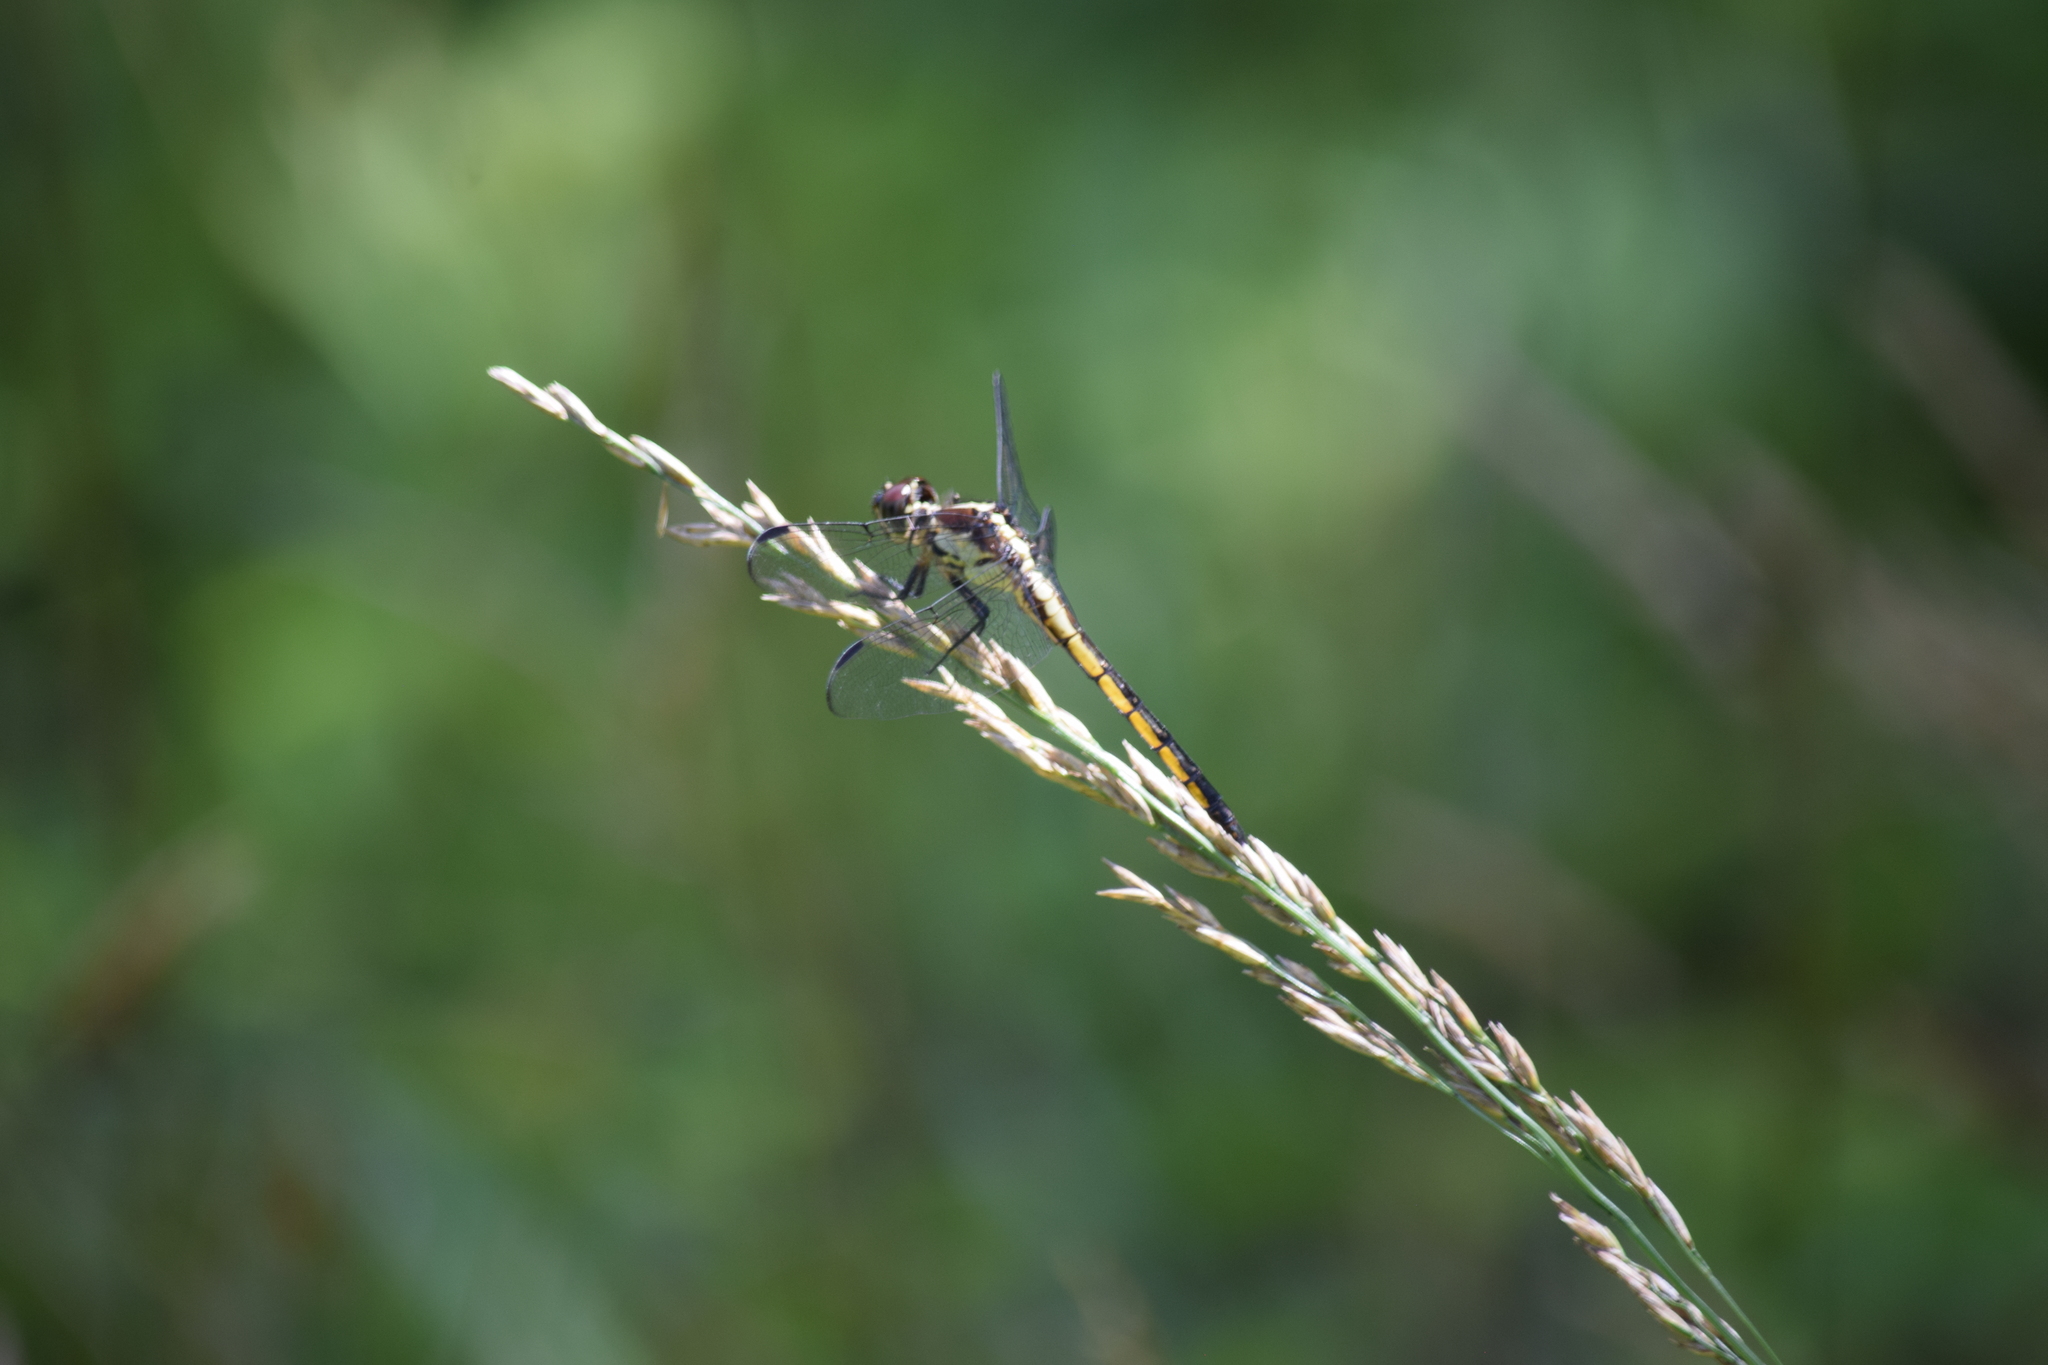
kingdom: Animalia
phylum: Arthropoda
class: Insecta
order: Odonata
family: Libellulidae
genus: Libellula
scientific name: Libellula incesta
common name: Slaty skimmer
